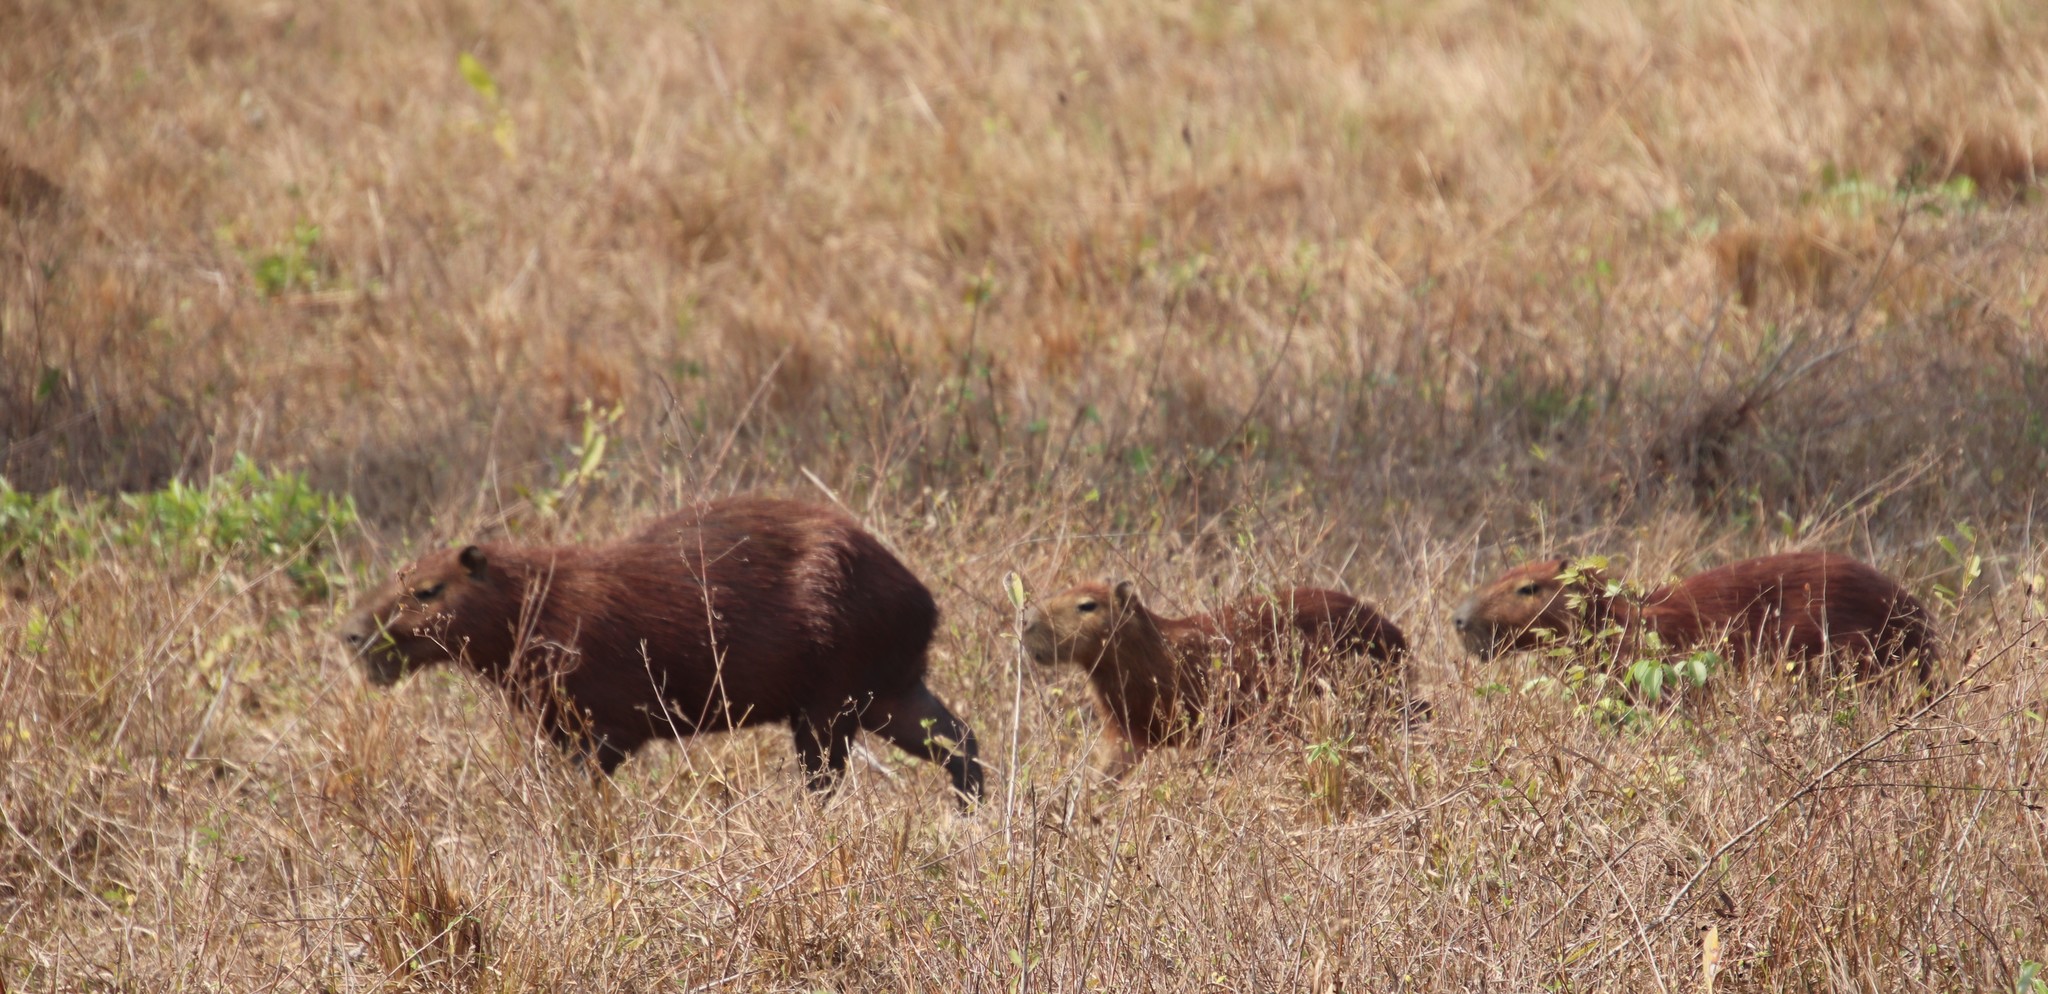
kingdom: Animalia
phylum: Chordata
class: Mammalia
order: Rodentia
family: Caviidae
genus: Hydrochoerus
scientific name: Hydrochoerus hydrochaeris
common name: Capybara
